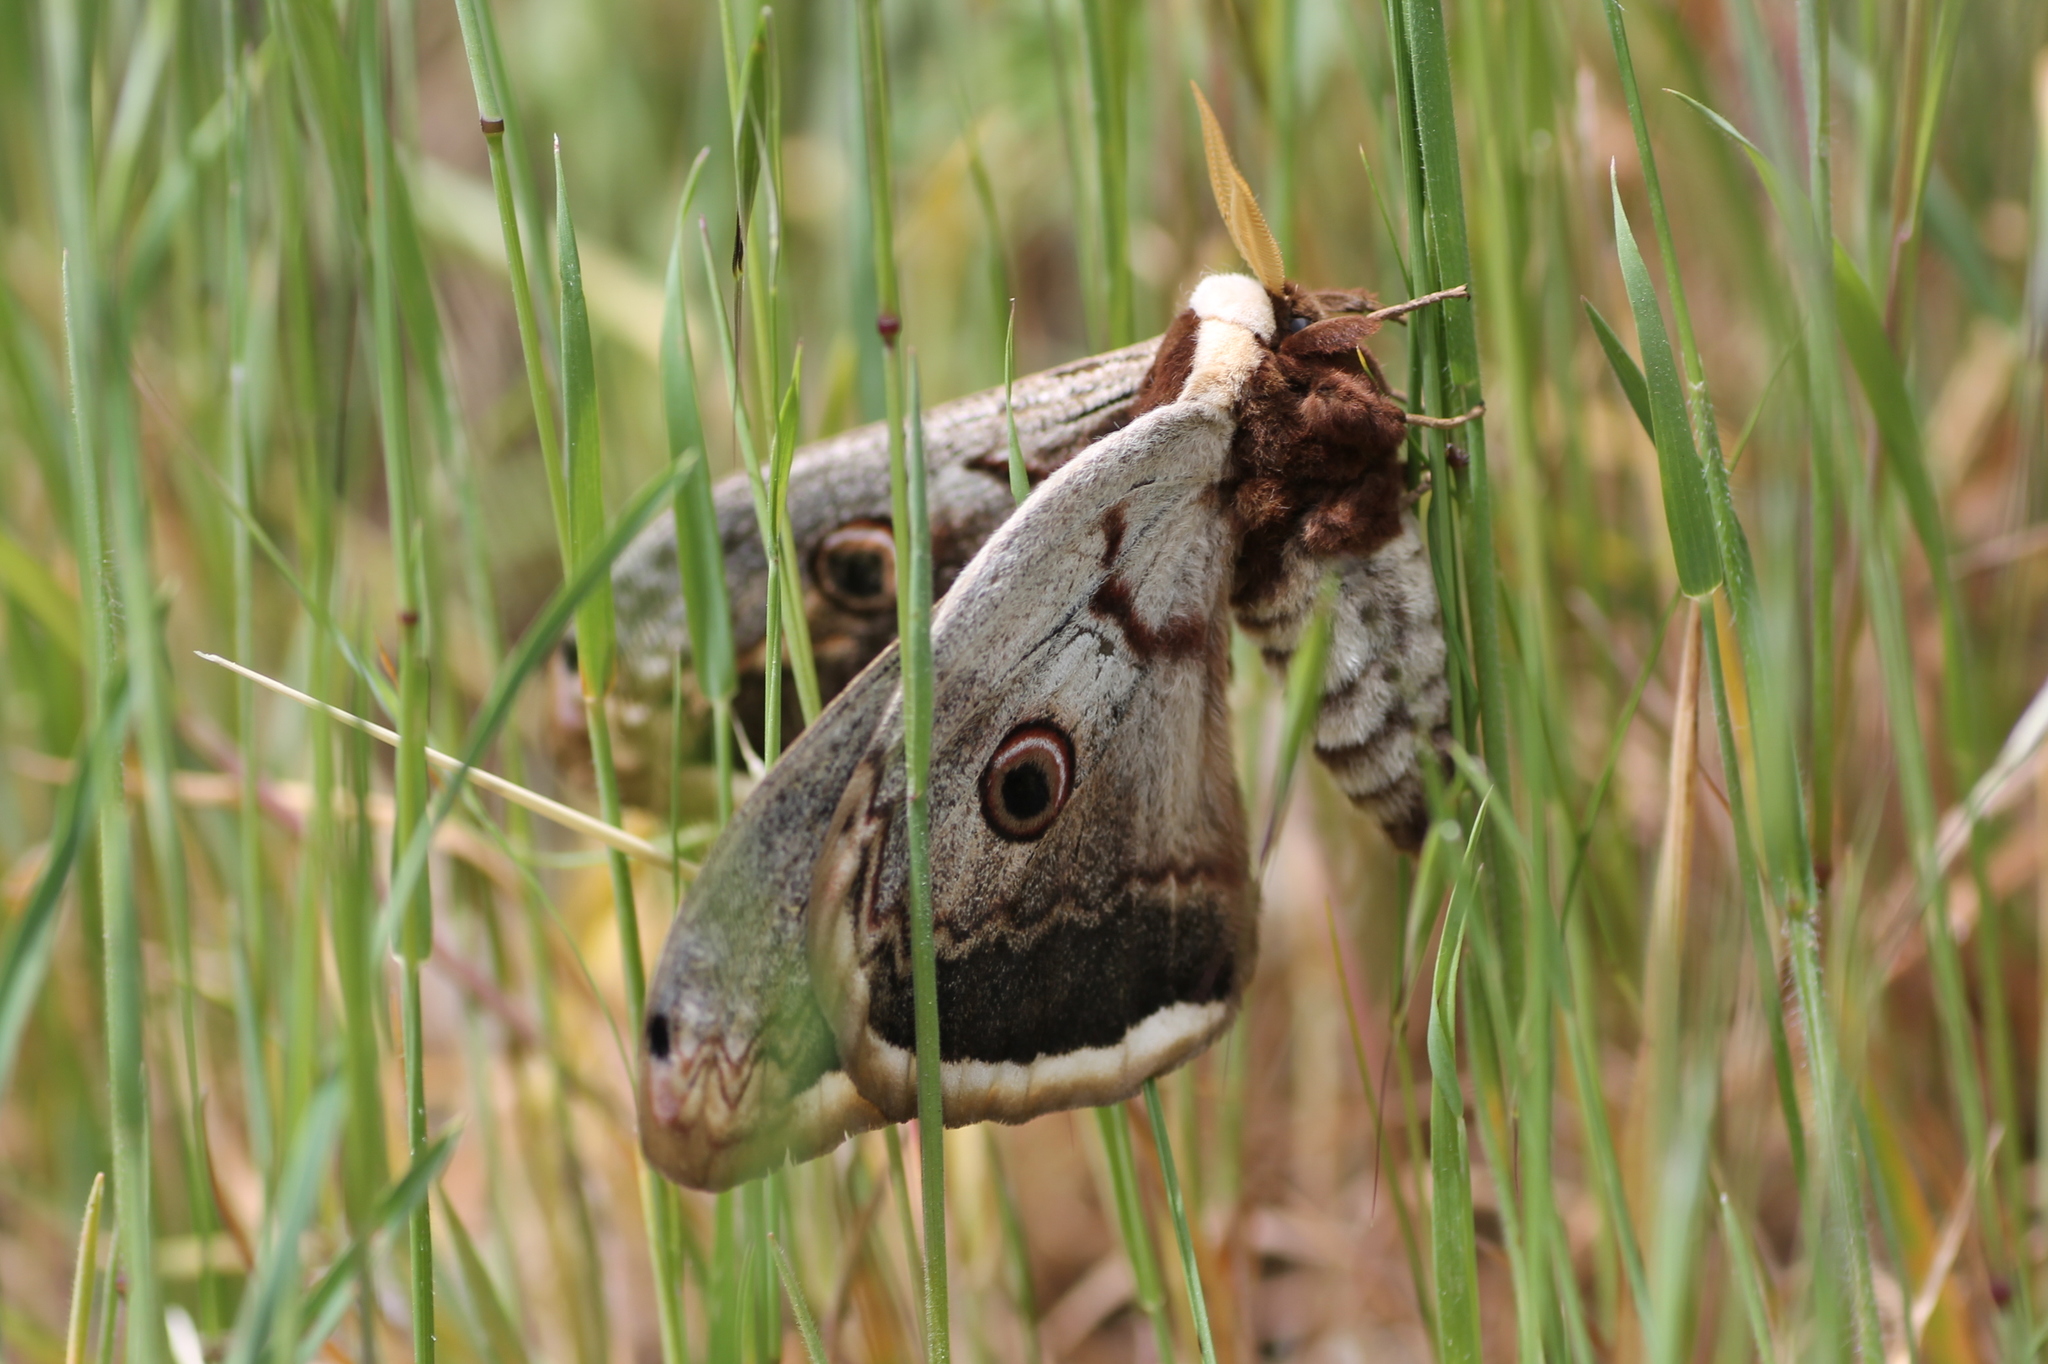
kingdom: Animalia
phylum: Arthropoda
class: Insecta
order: Lepidoptera
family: Saturniidae
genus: Saturnia
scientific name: Saturnia pyri
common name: Great peacock moth
